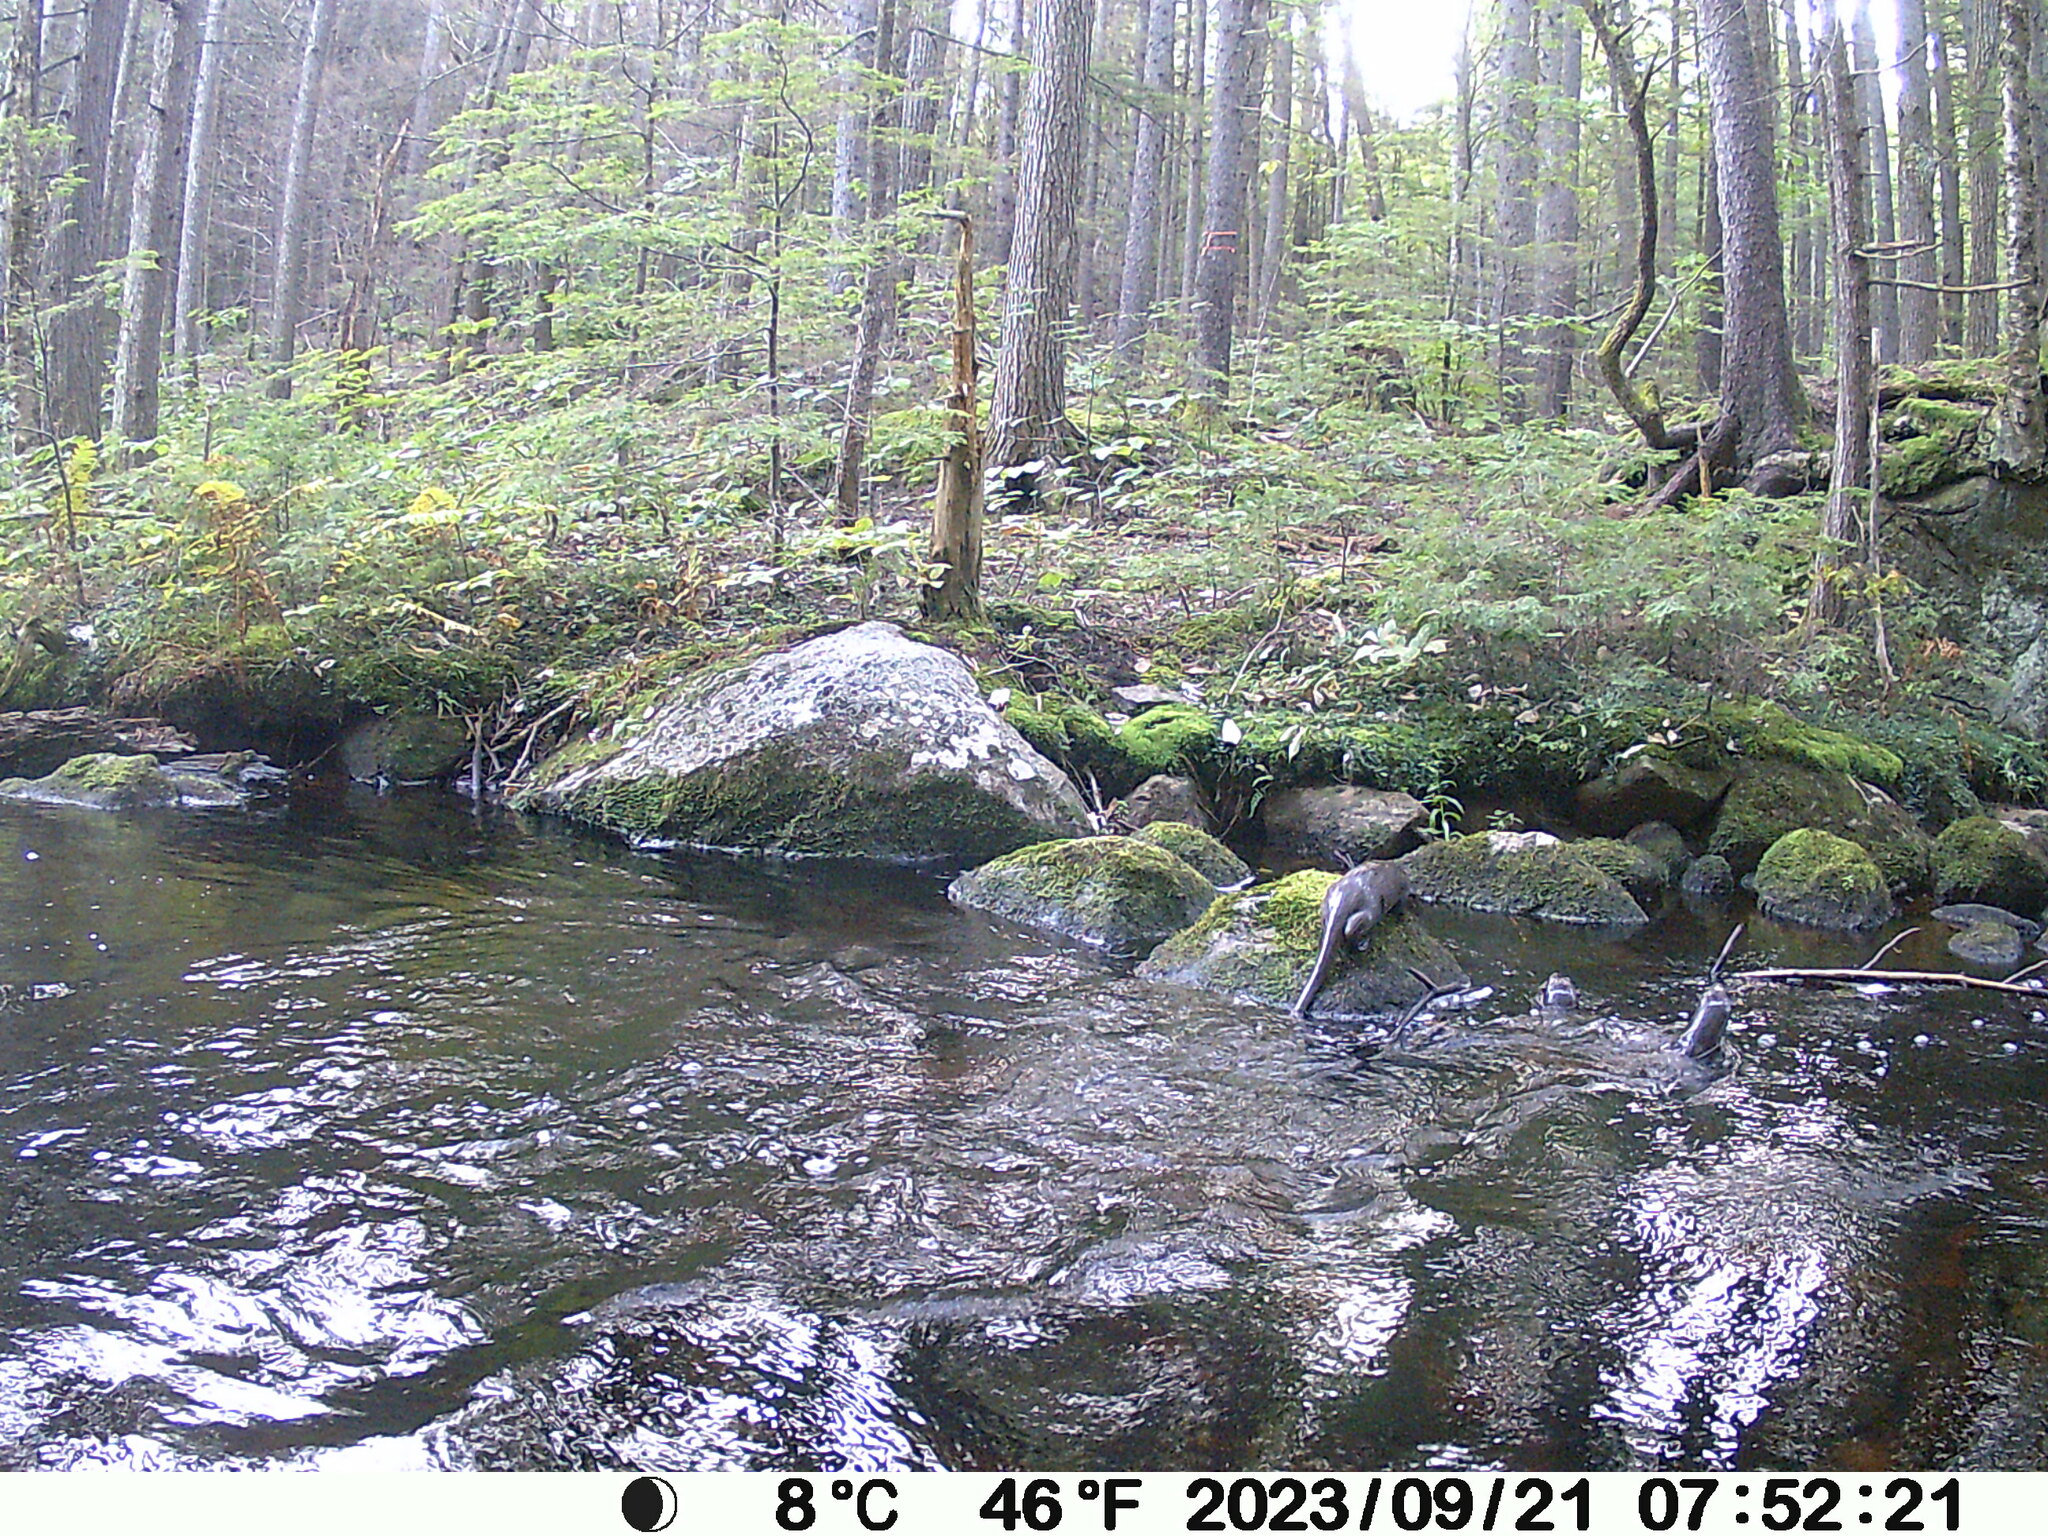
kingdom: Animalia
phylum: Chordata
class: Mammalia
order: Carnivora
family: Mustelidae
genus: Lontra
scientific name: Lontra canadensis
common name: North american river otter
